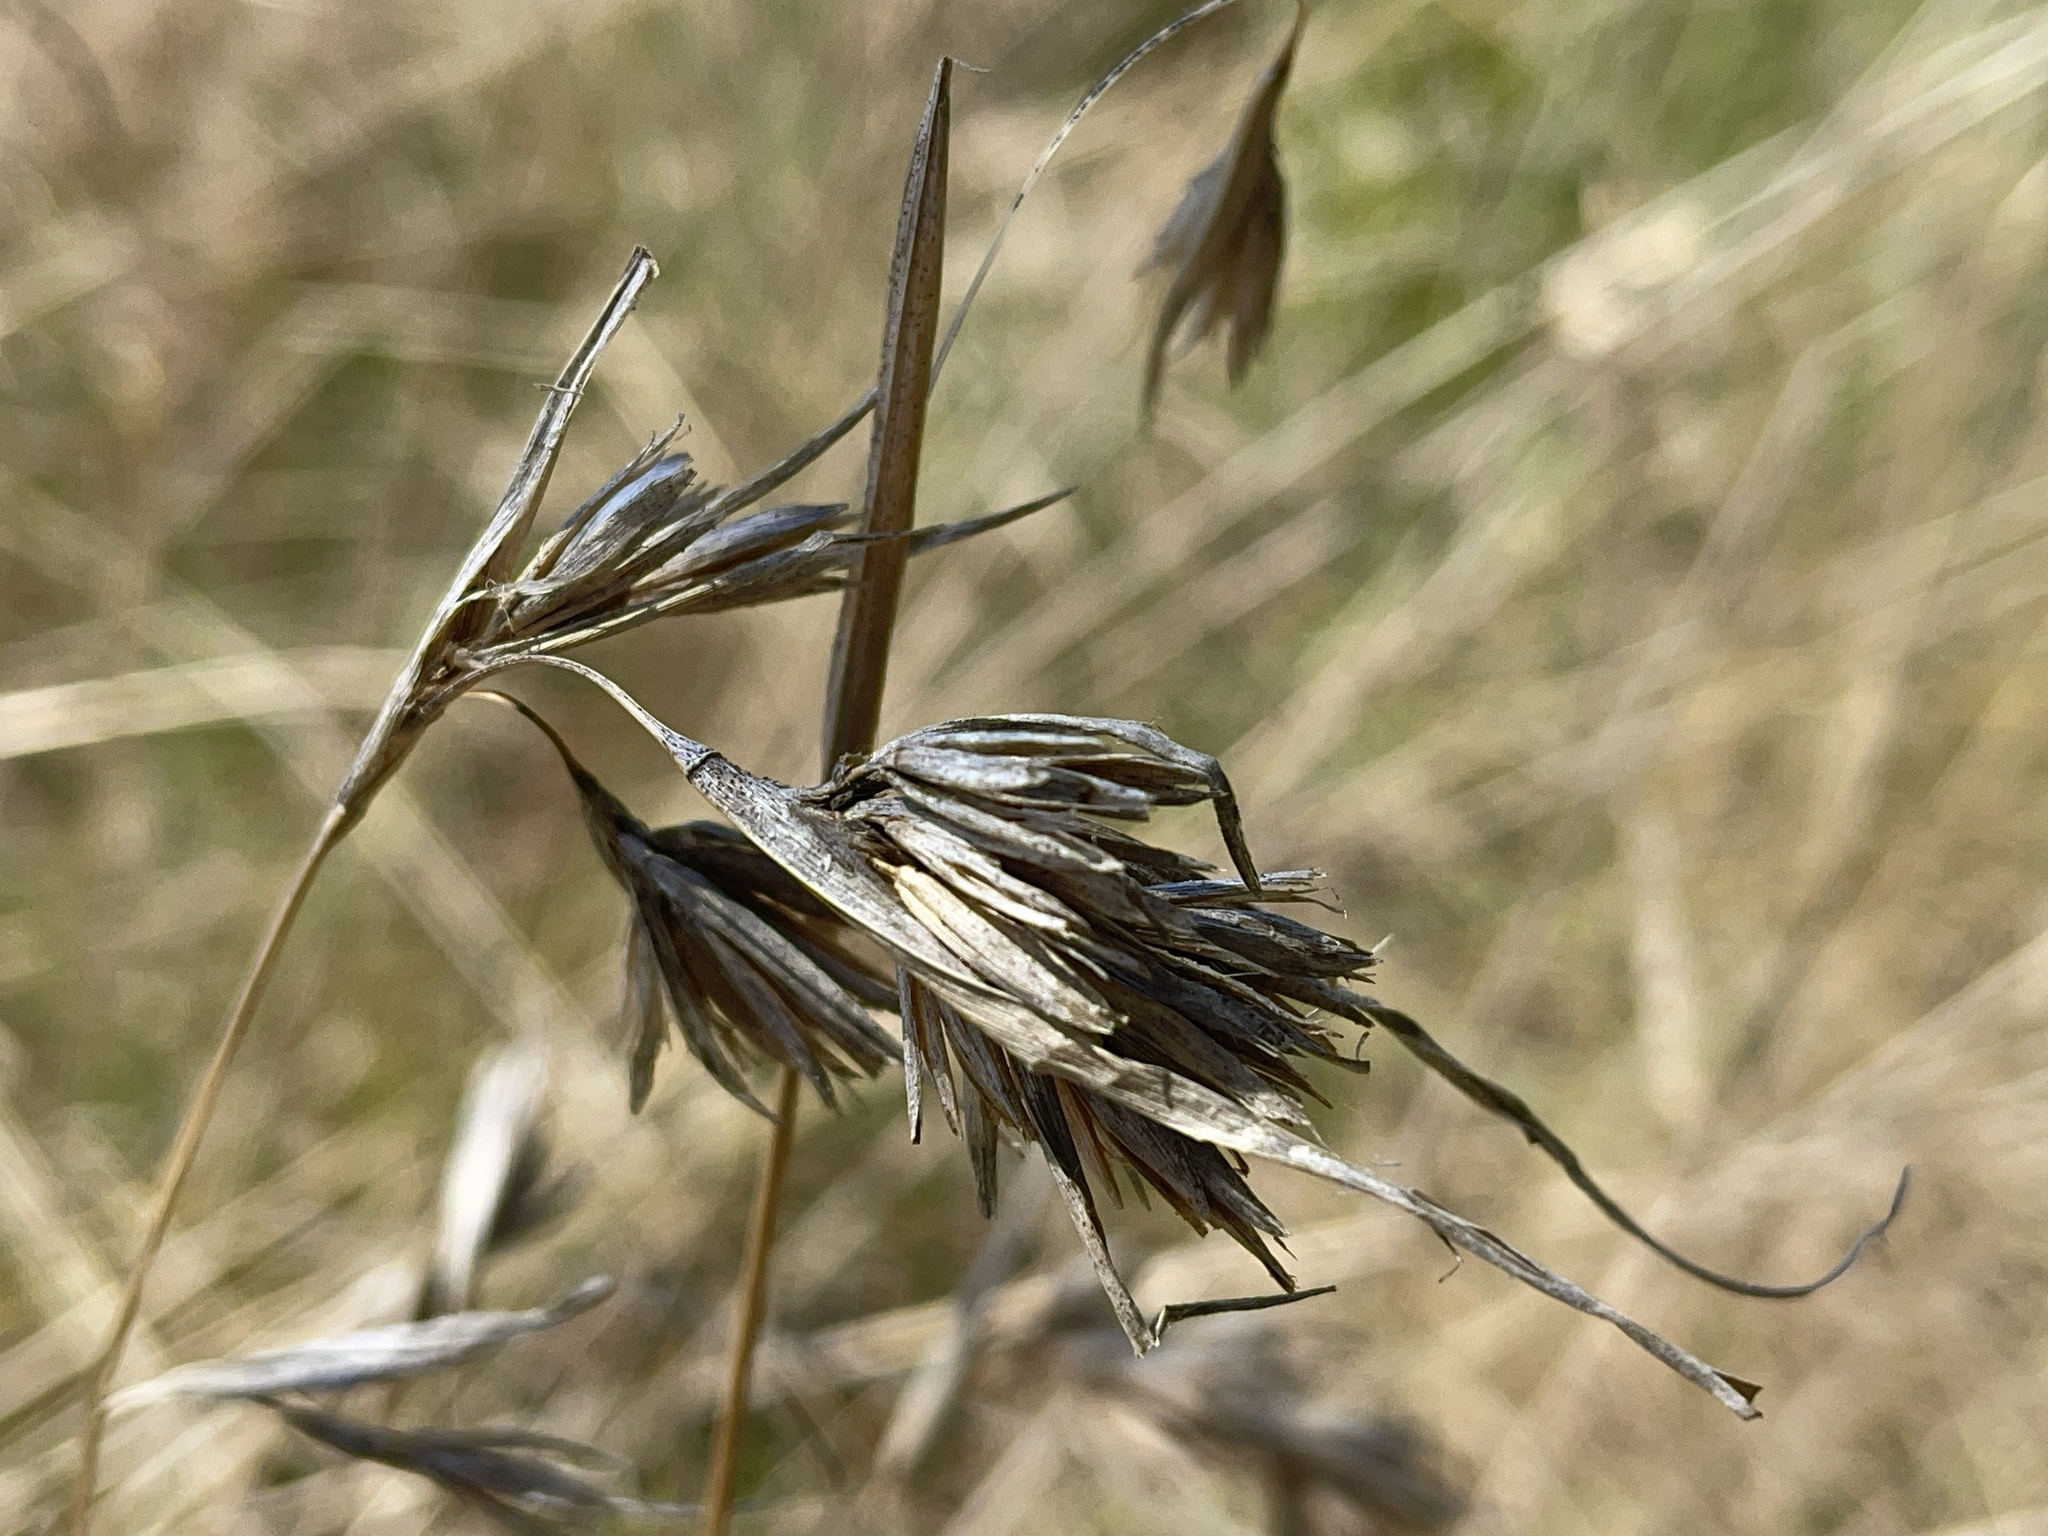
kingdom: Plantae
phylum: Tracheophyta
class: Liliopsida
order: Poales
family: Poaceae
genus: Themeda
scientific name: Themeda triandra
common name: Kangaroo grass
